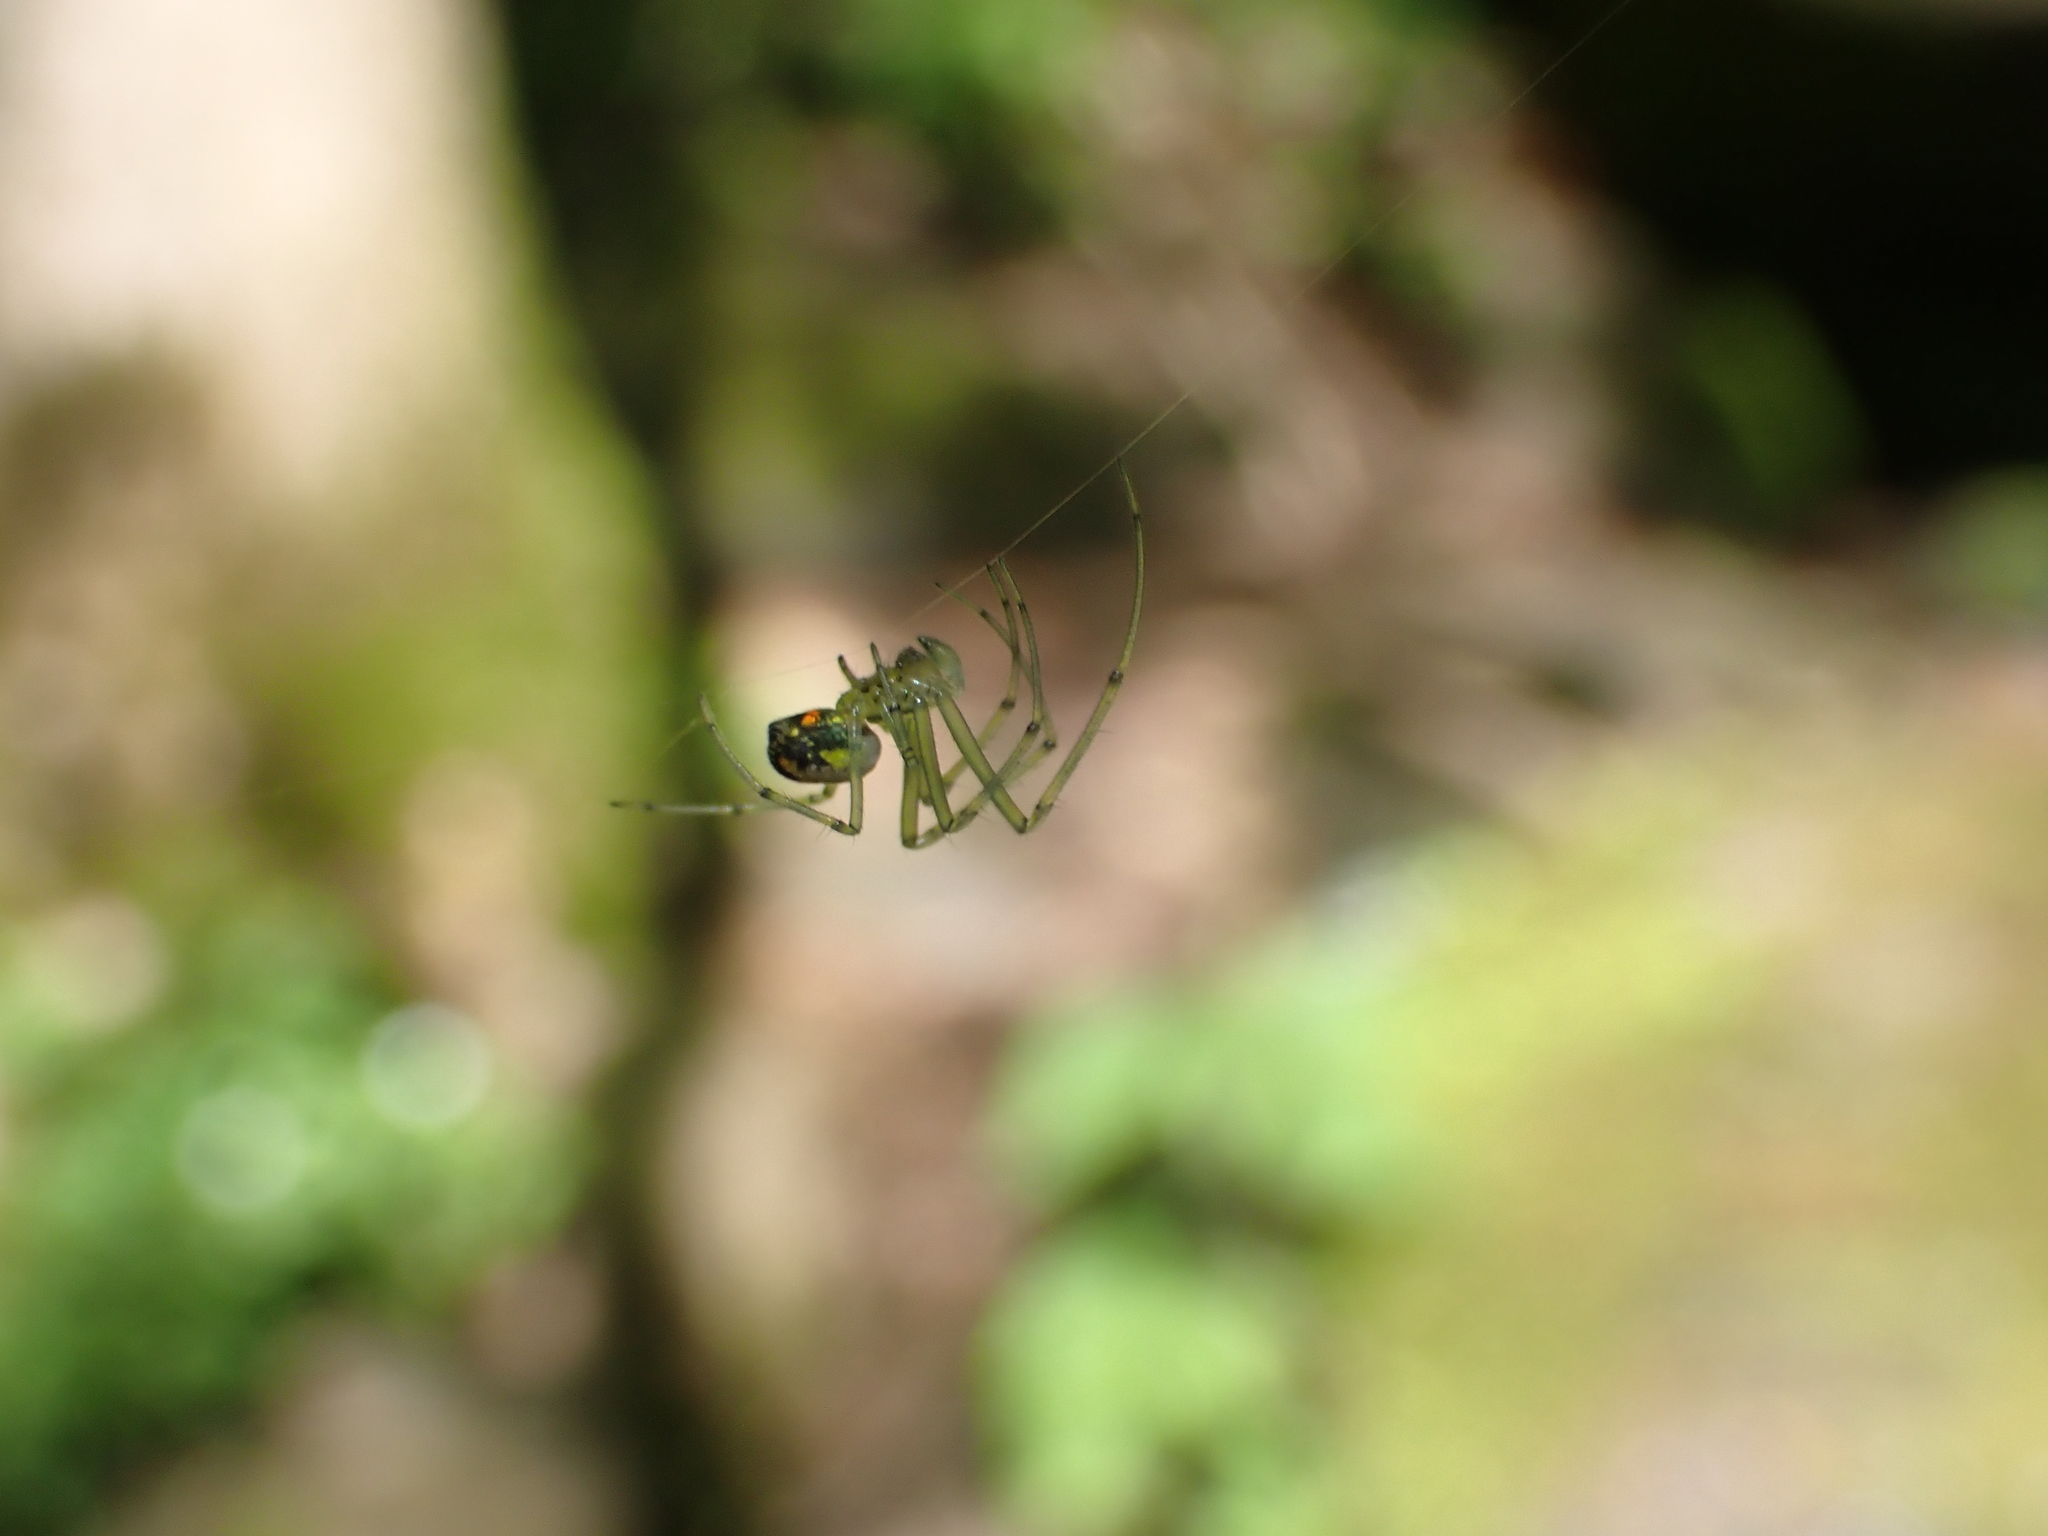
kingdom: Animalia
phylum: Arthropoda
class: Arachnida
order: Araneae
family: Tetragnathidae
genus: Leucauge
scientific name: Leucauge venusta
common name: Longjawed orb weavers
